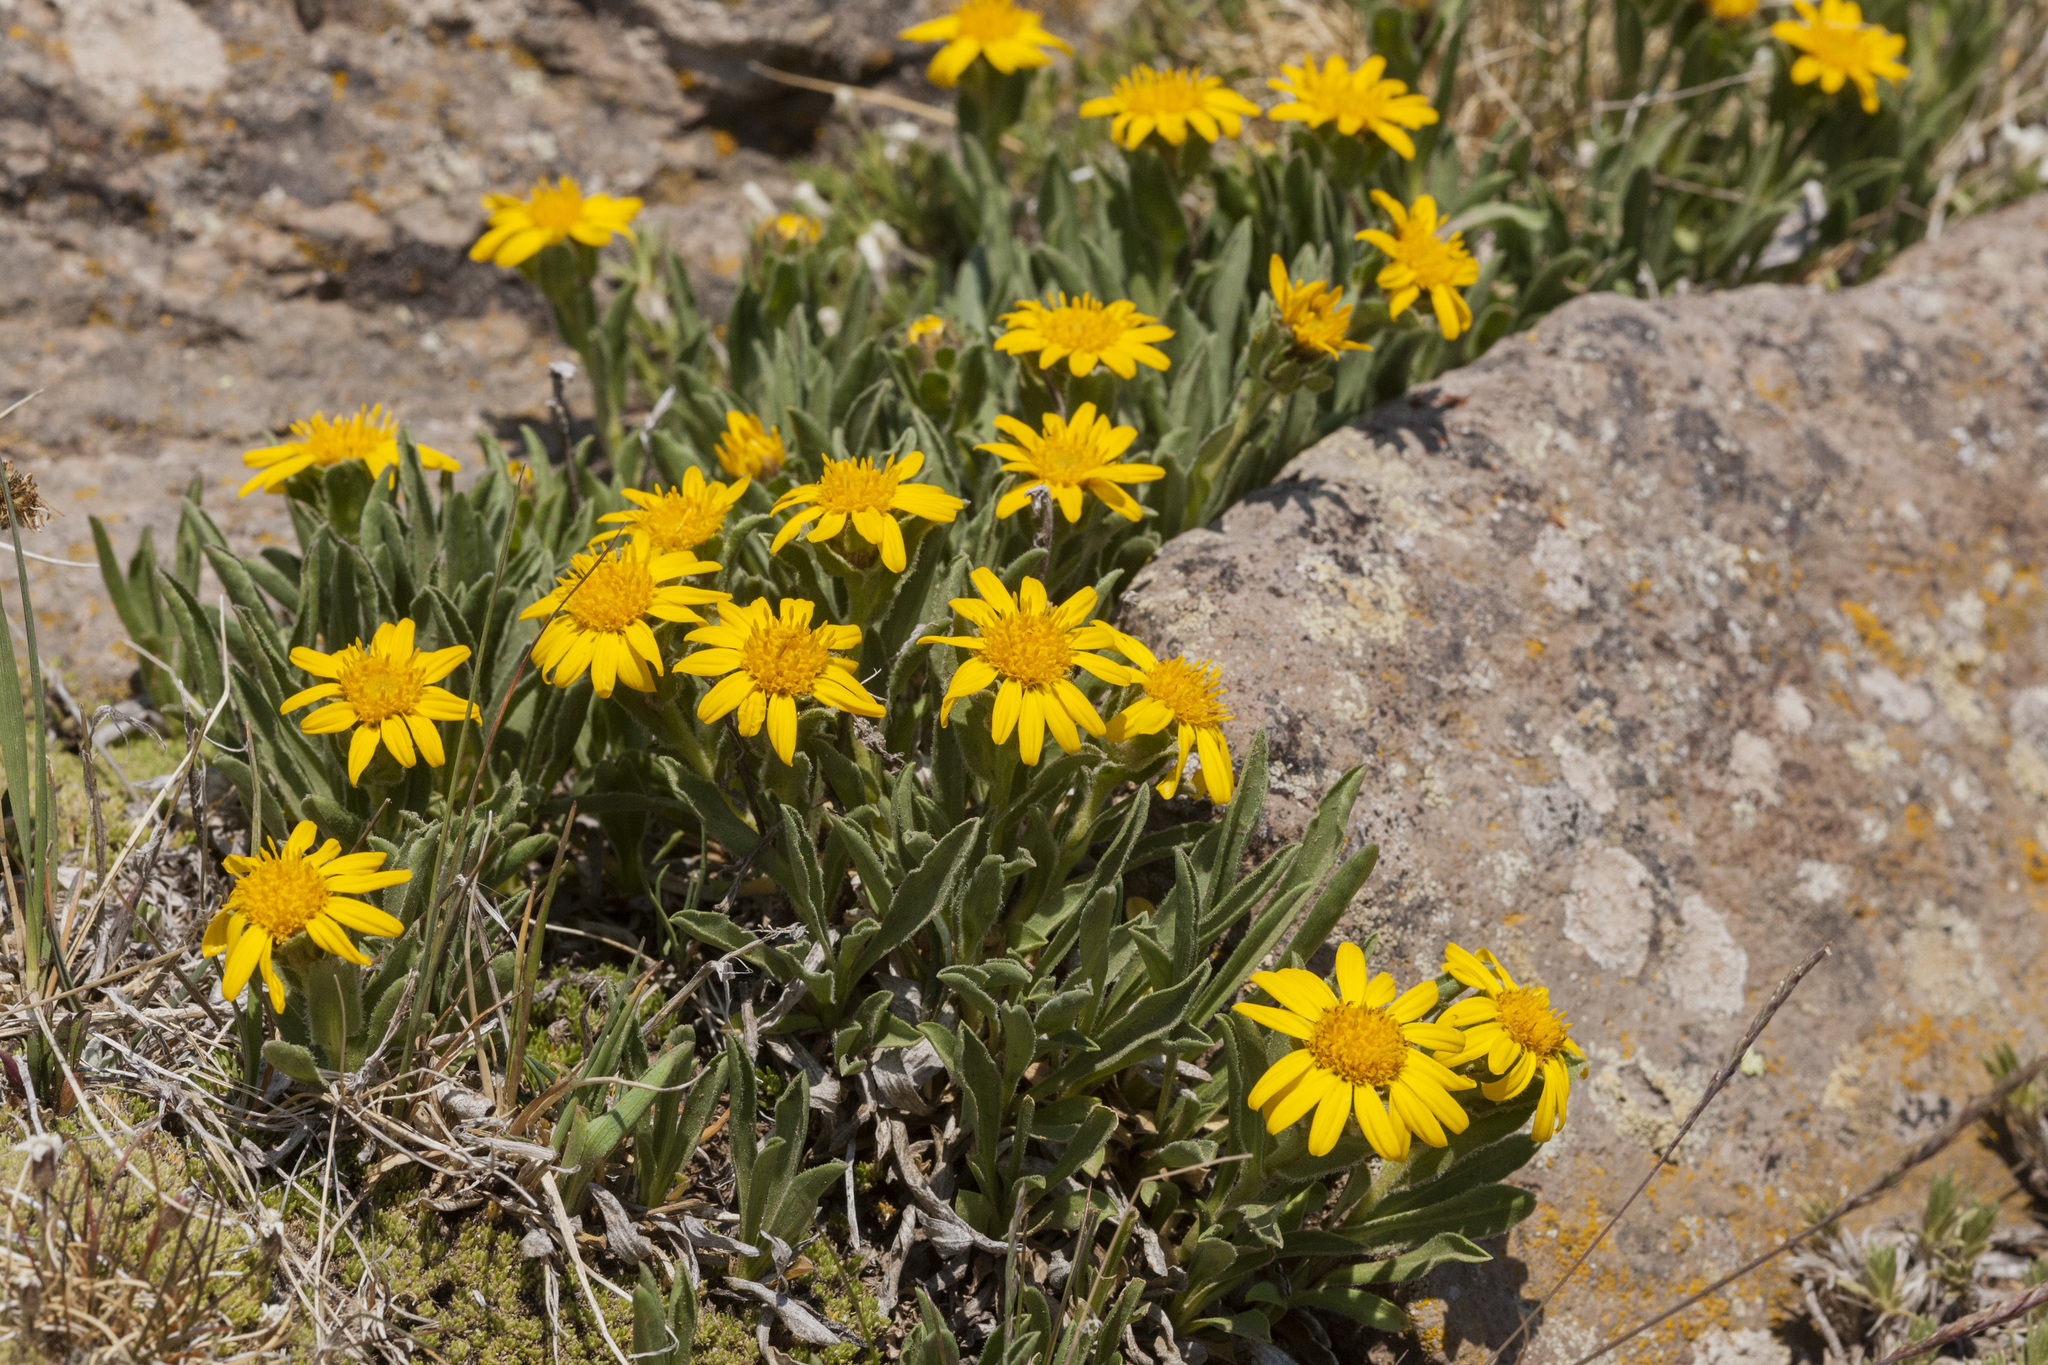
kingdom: Plantae
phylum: Tracheophyta
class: Magnoliopsida
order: Asterales
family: Asteraceae
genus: Tonestus
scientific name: Tonestus pygmaeus
